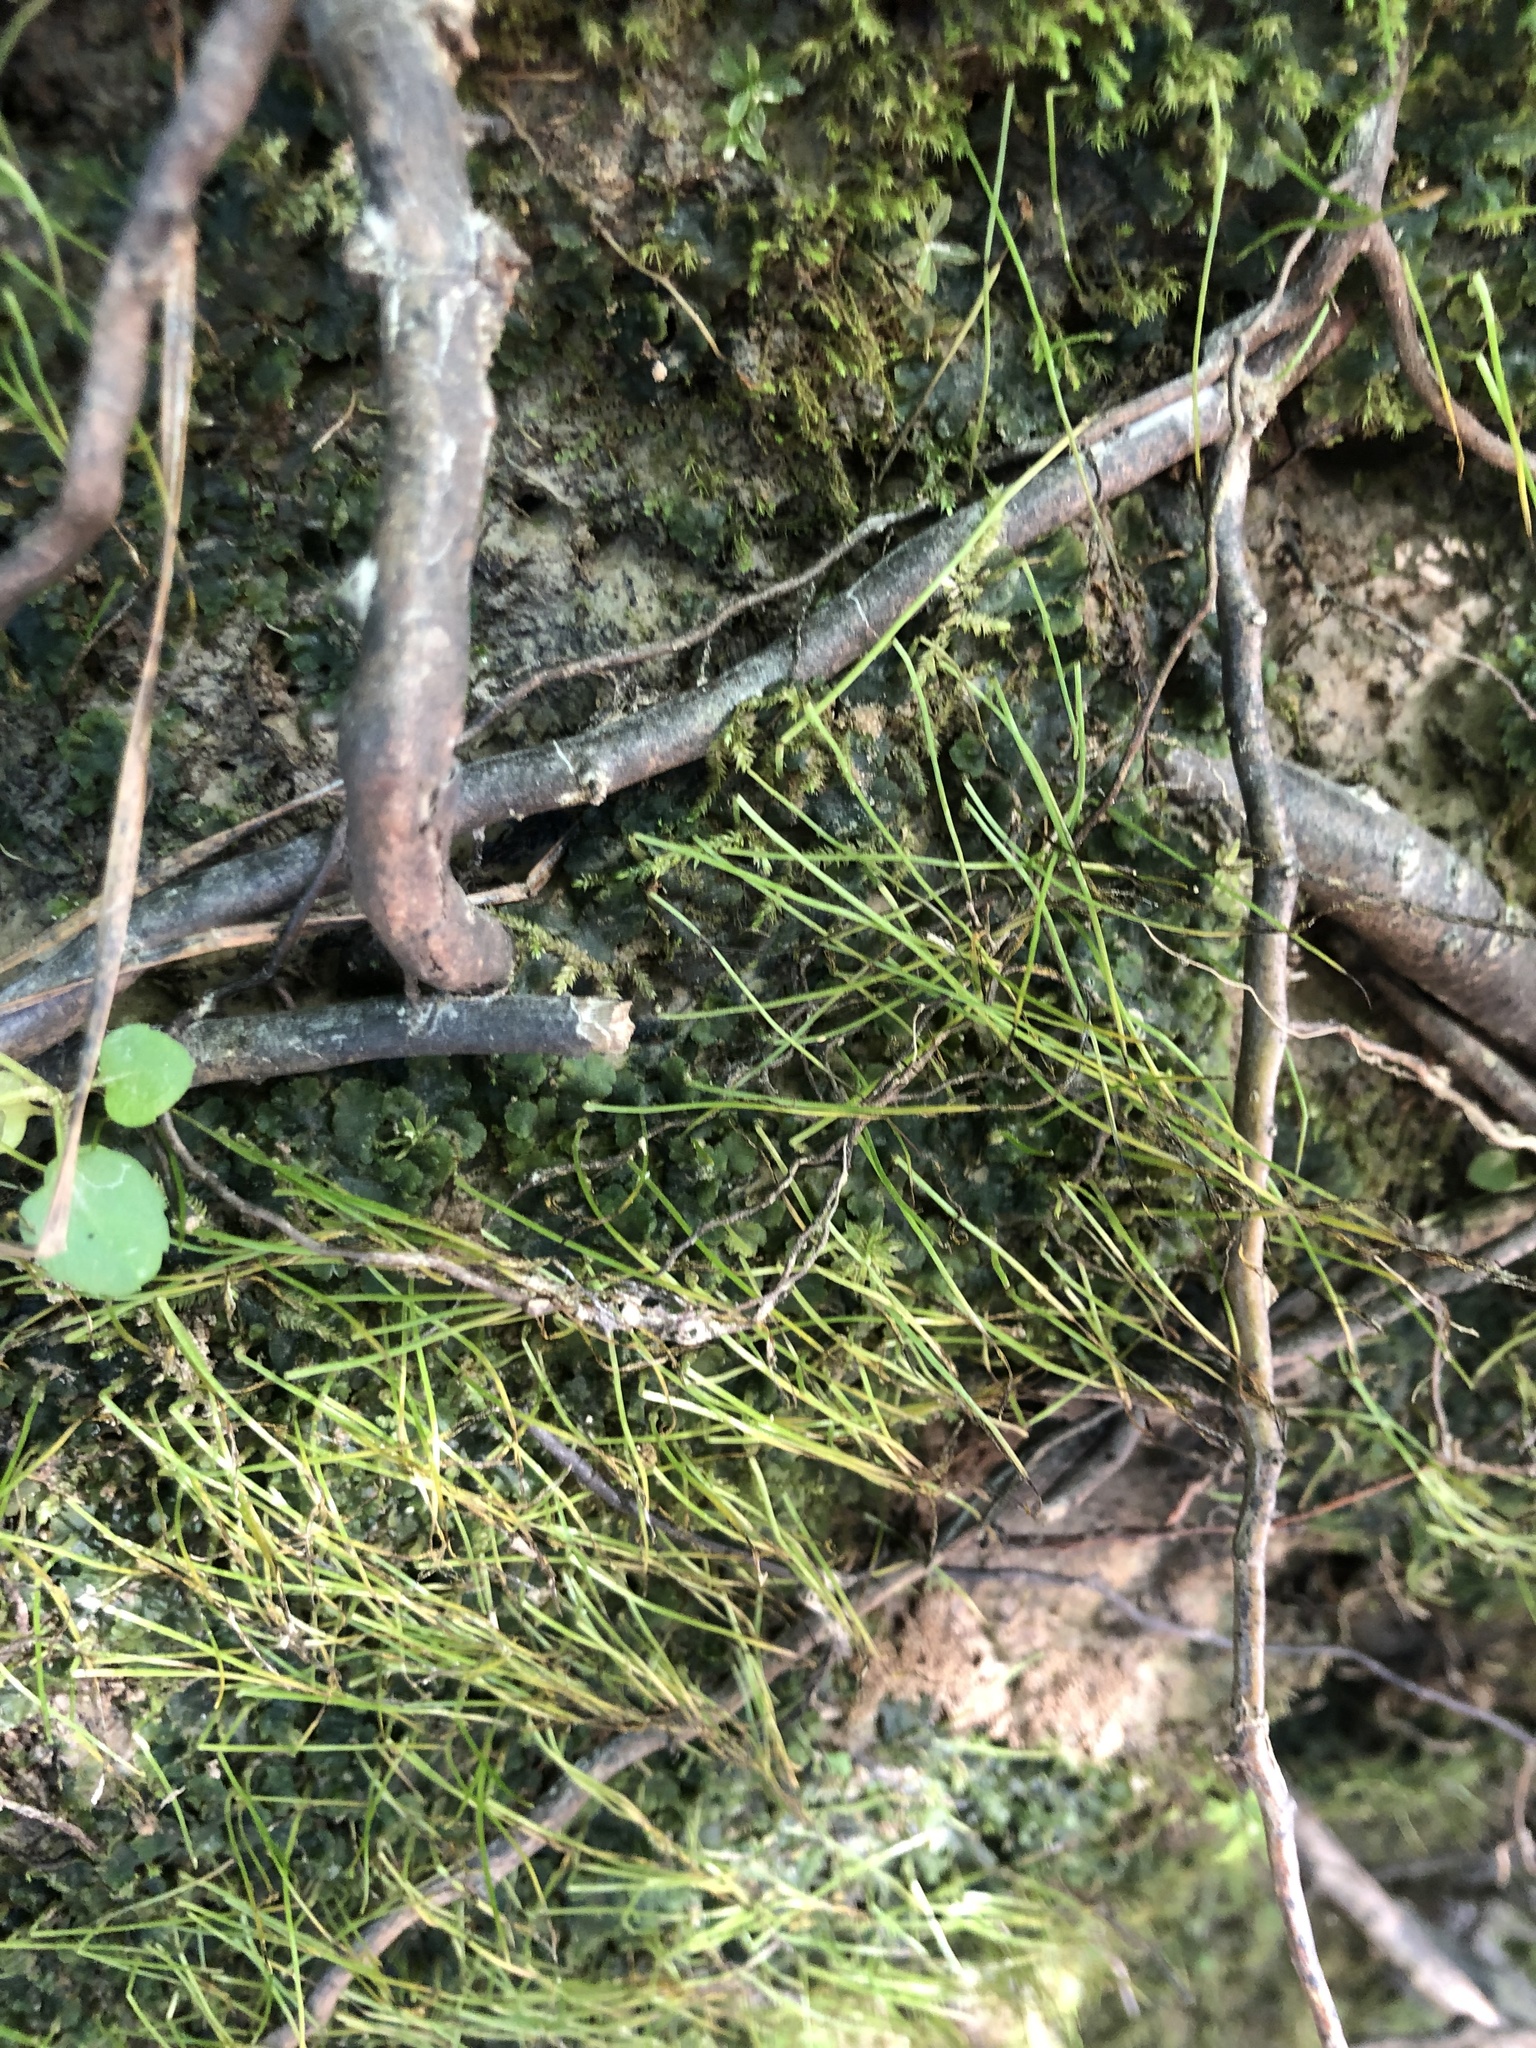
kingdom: Plantae
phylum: Anthocerotophyta
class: Anthocerotopsida
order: Notothyladales
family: Notothyladaceae
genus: Phaeoceros
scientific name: Phaeoceros carolinianus
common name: Carolina hornwort
